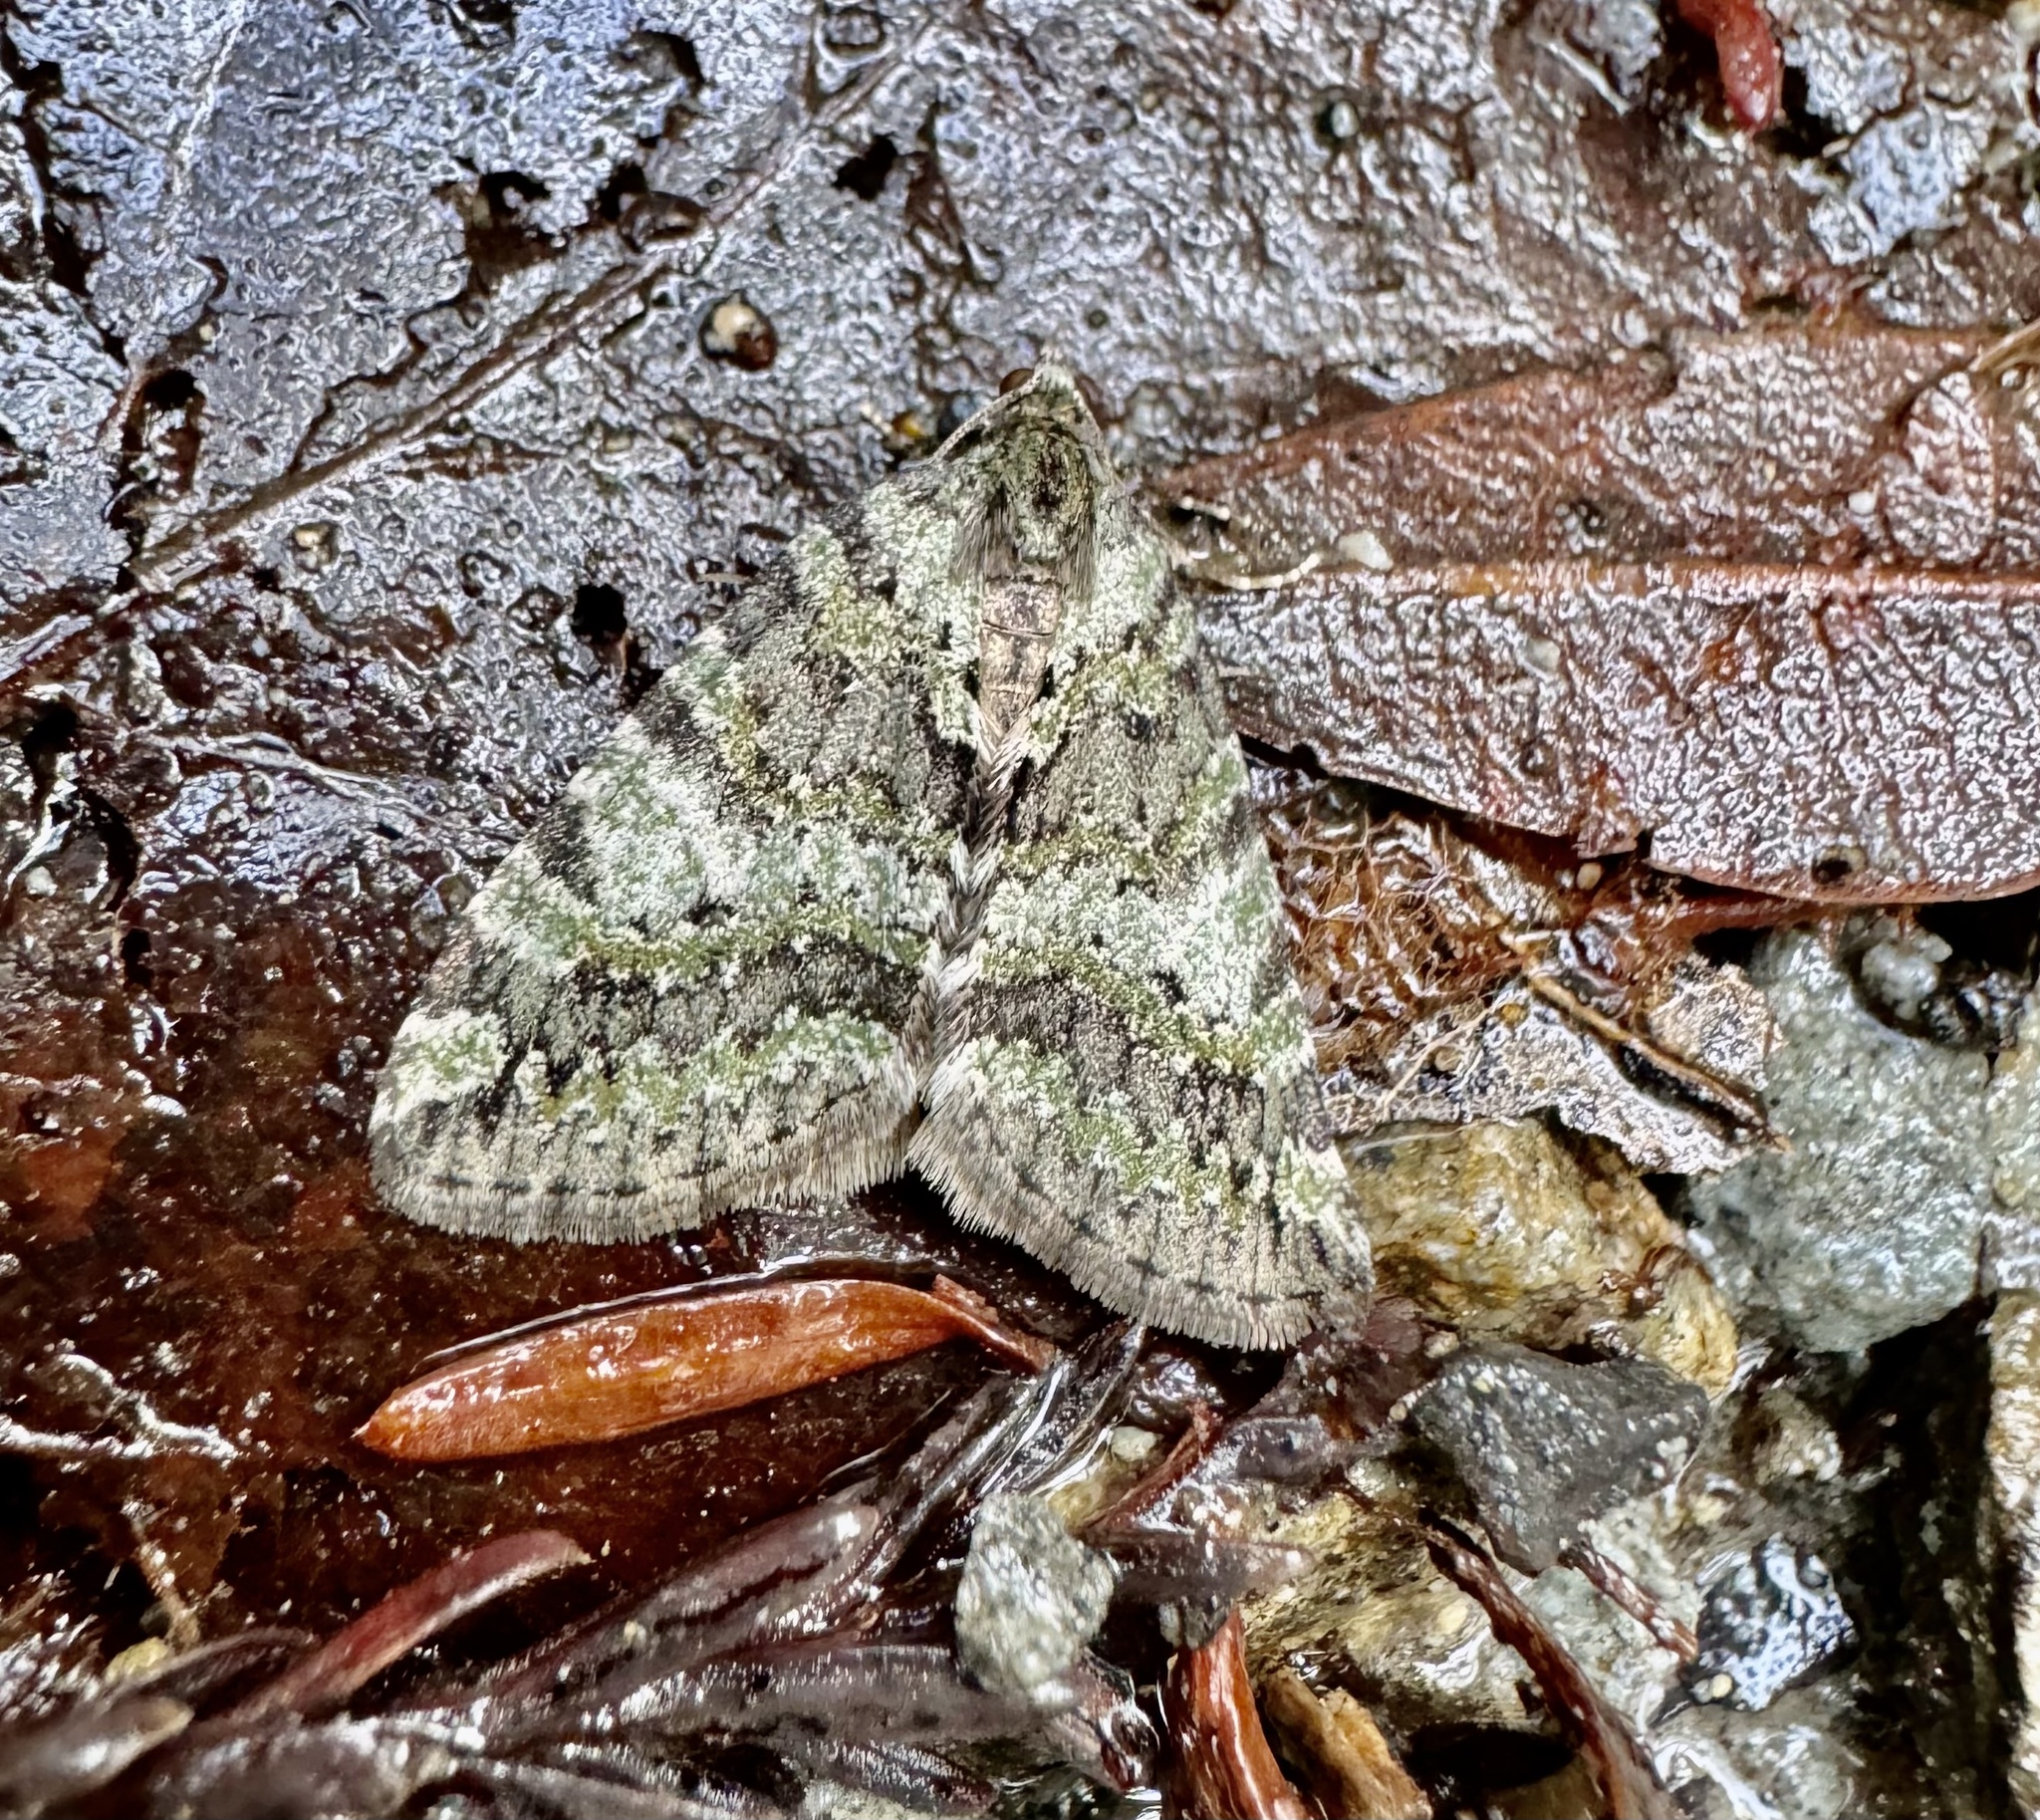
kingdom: Animalia
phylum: Arthropoda
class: Insecta
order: Lepidoptera
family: Geometridae
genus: Hydriomena
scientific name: Hydriomena nubilofasciata
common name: Oak winter highflier moth
